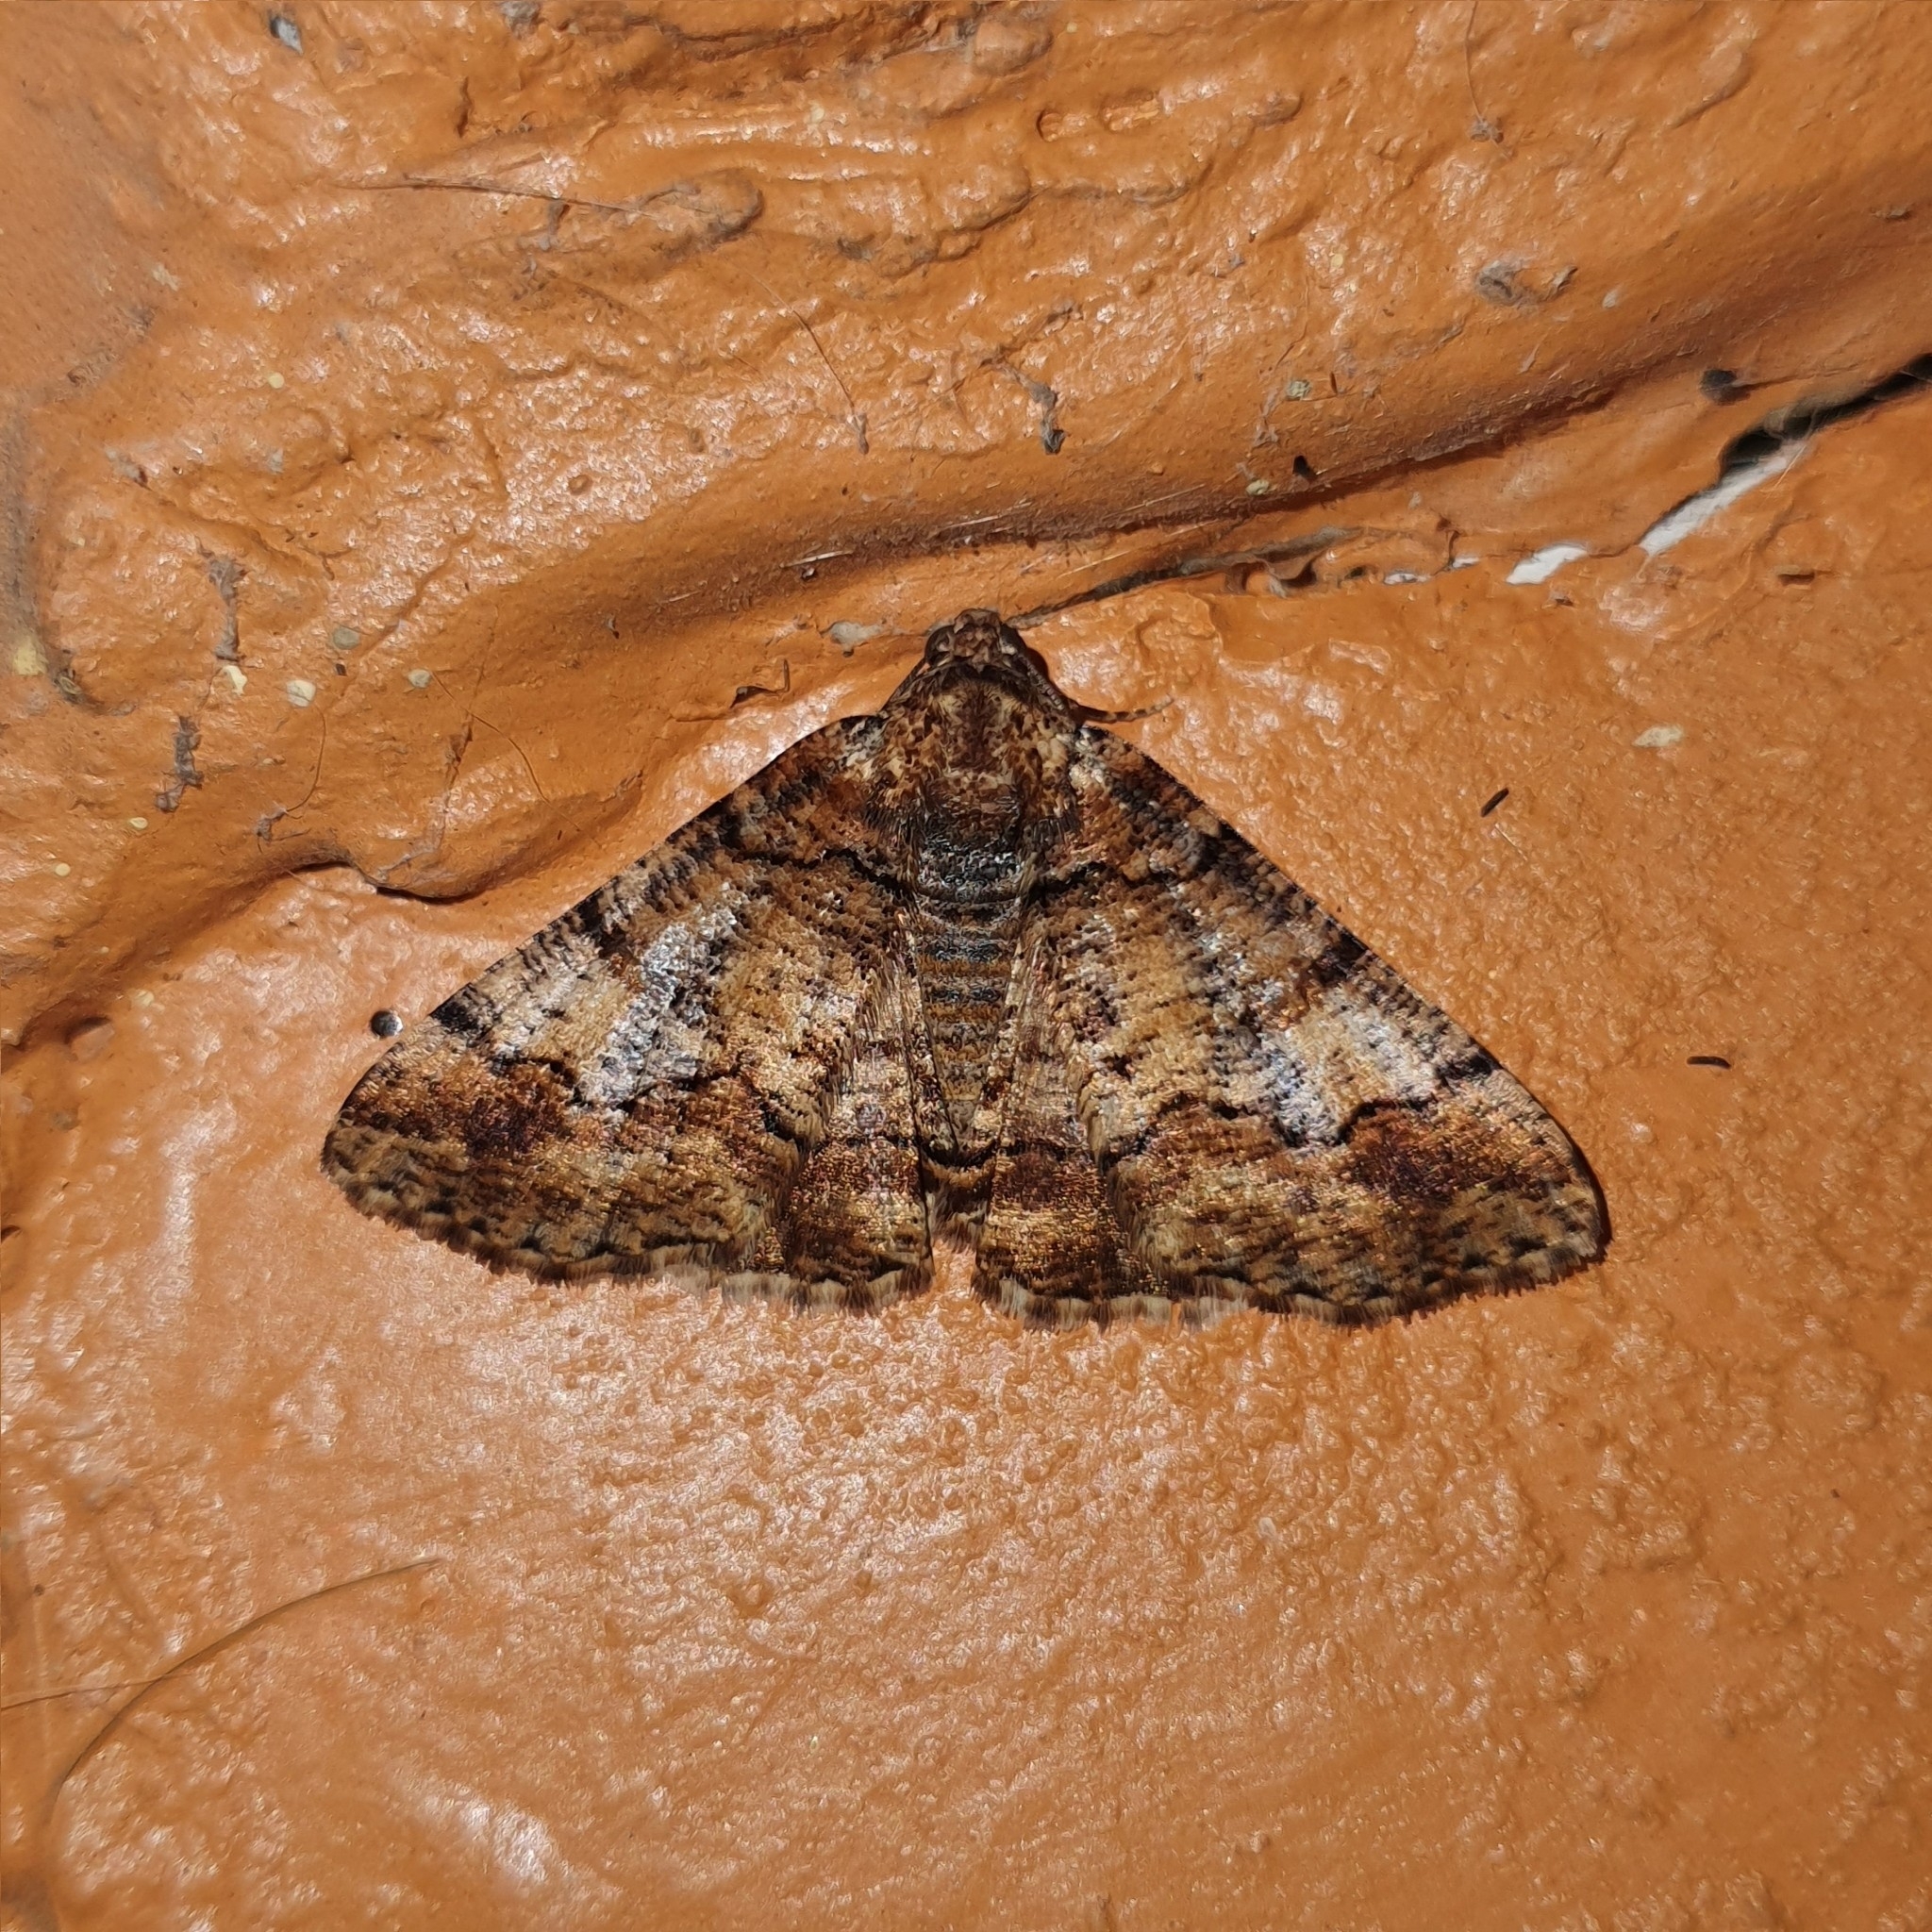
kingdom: Animalia
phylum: Arthropoda
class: Insecta
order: Lepidoptera
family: Geometridae
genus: Cryphaea
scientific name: Cryphaea xylina
